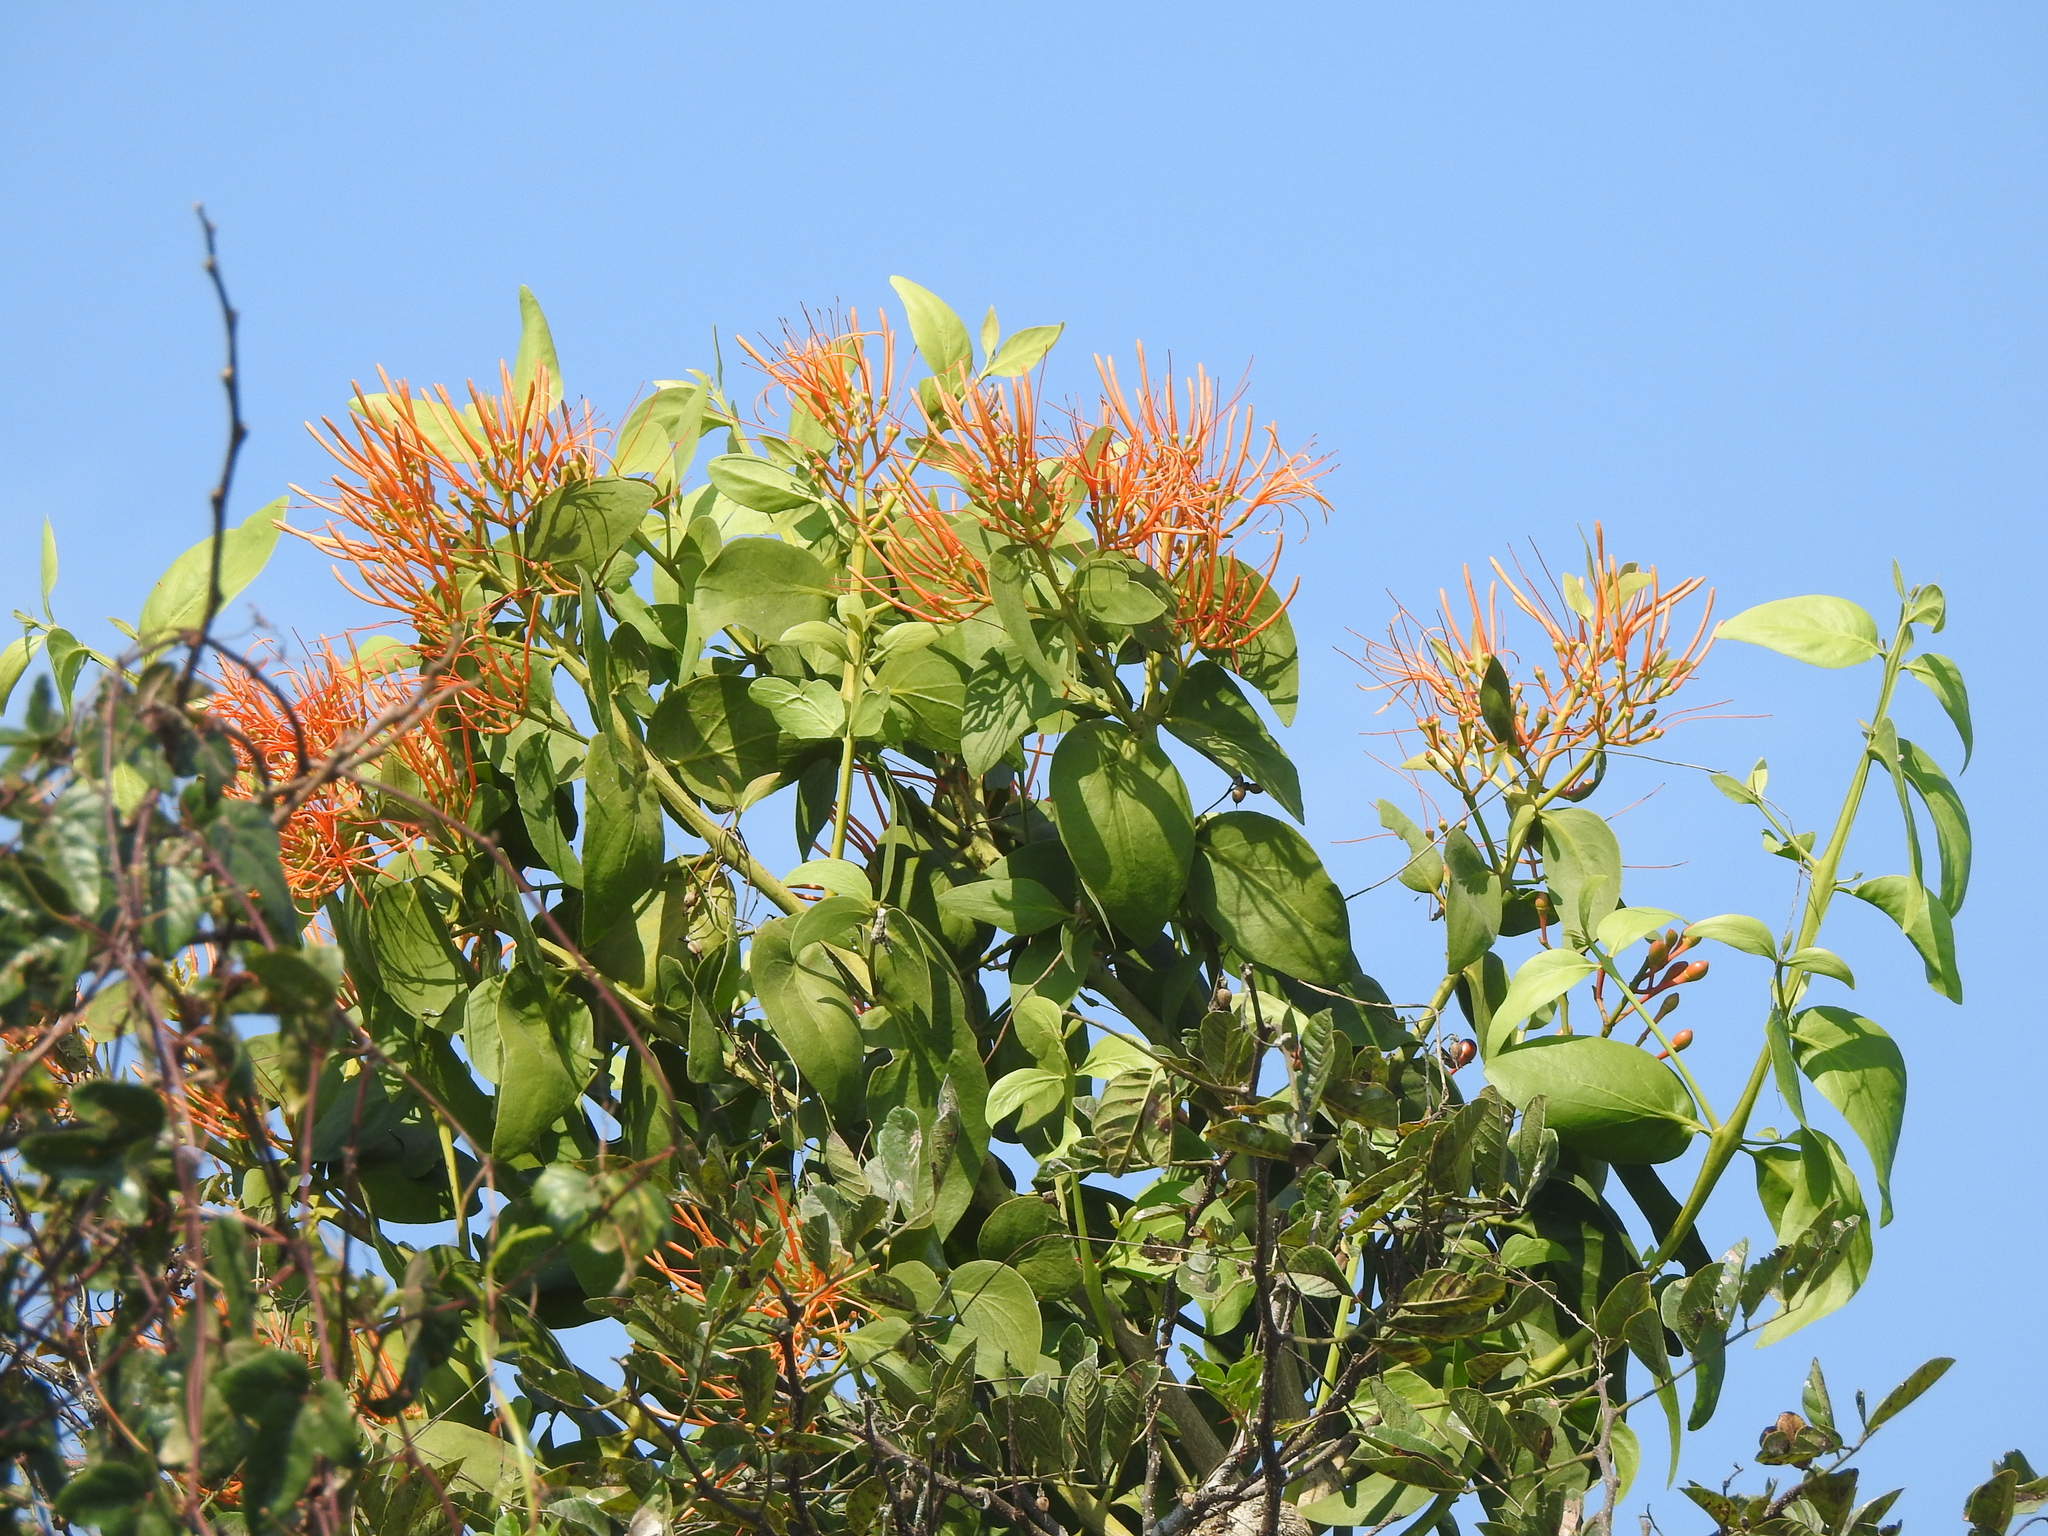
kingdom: Plantae
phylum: Tracheophyta
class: Magnoliopsida
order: Santalales
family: Loranthaceae
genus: Psittacanthus
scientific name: Psittacanthus schiedeanus
